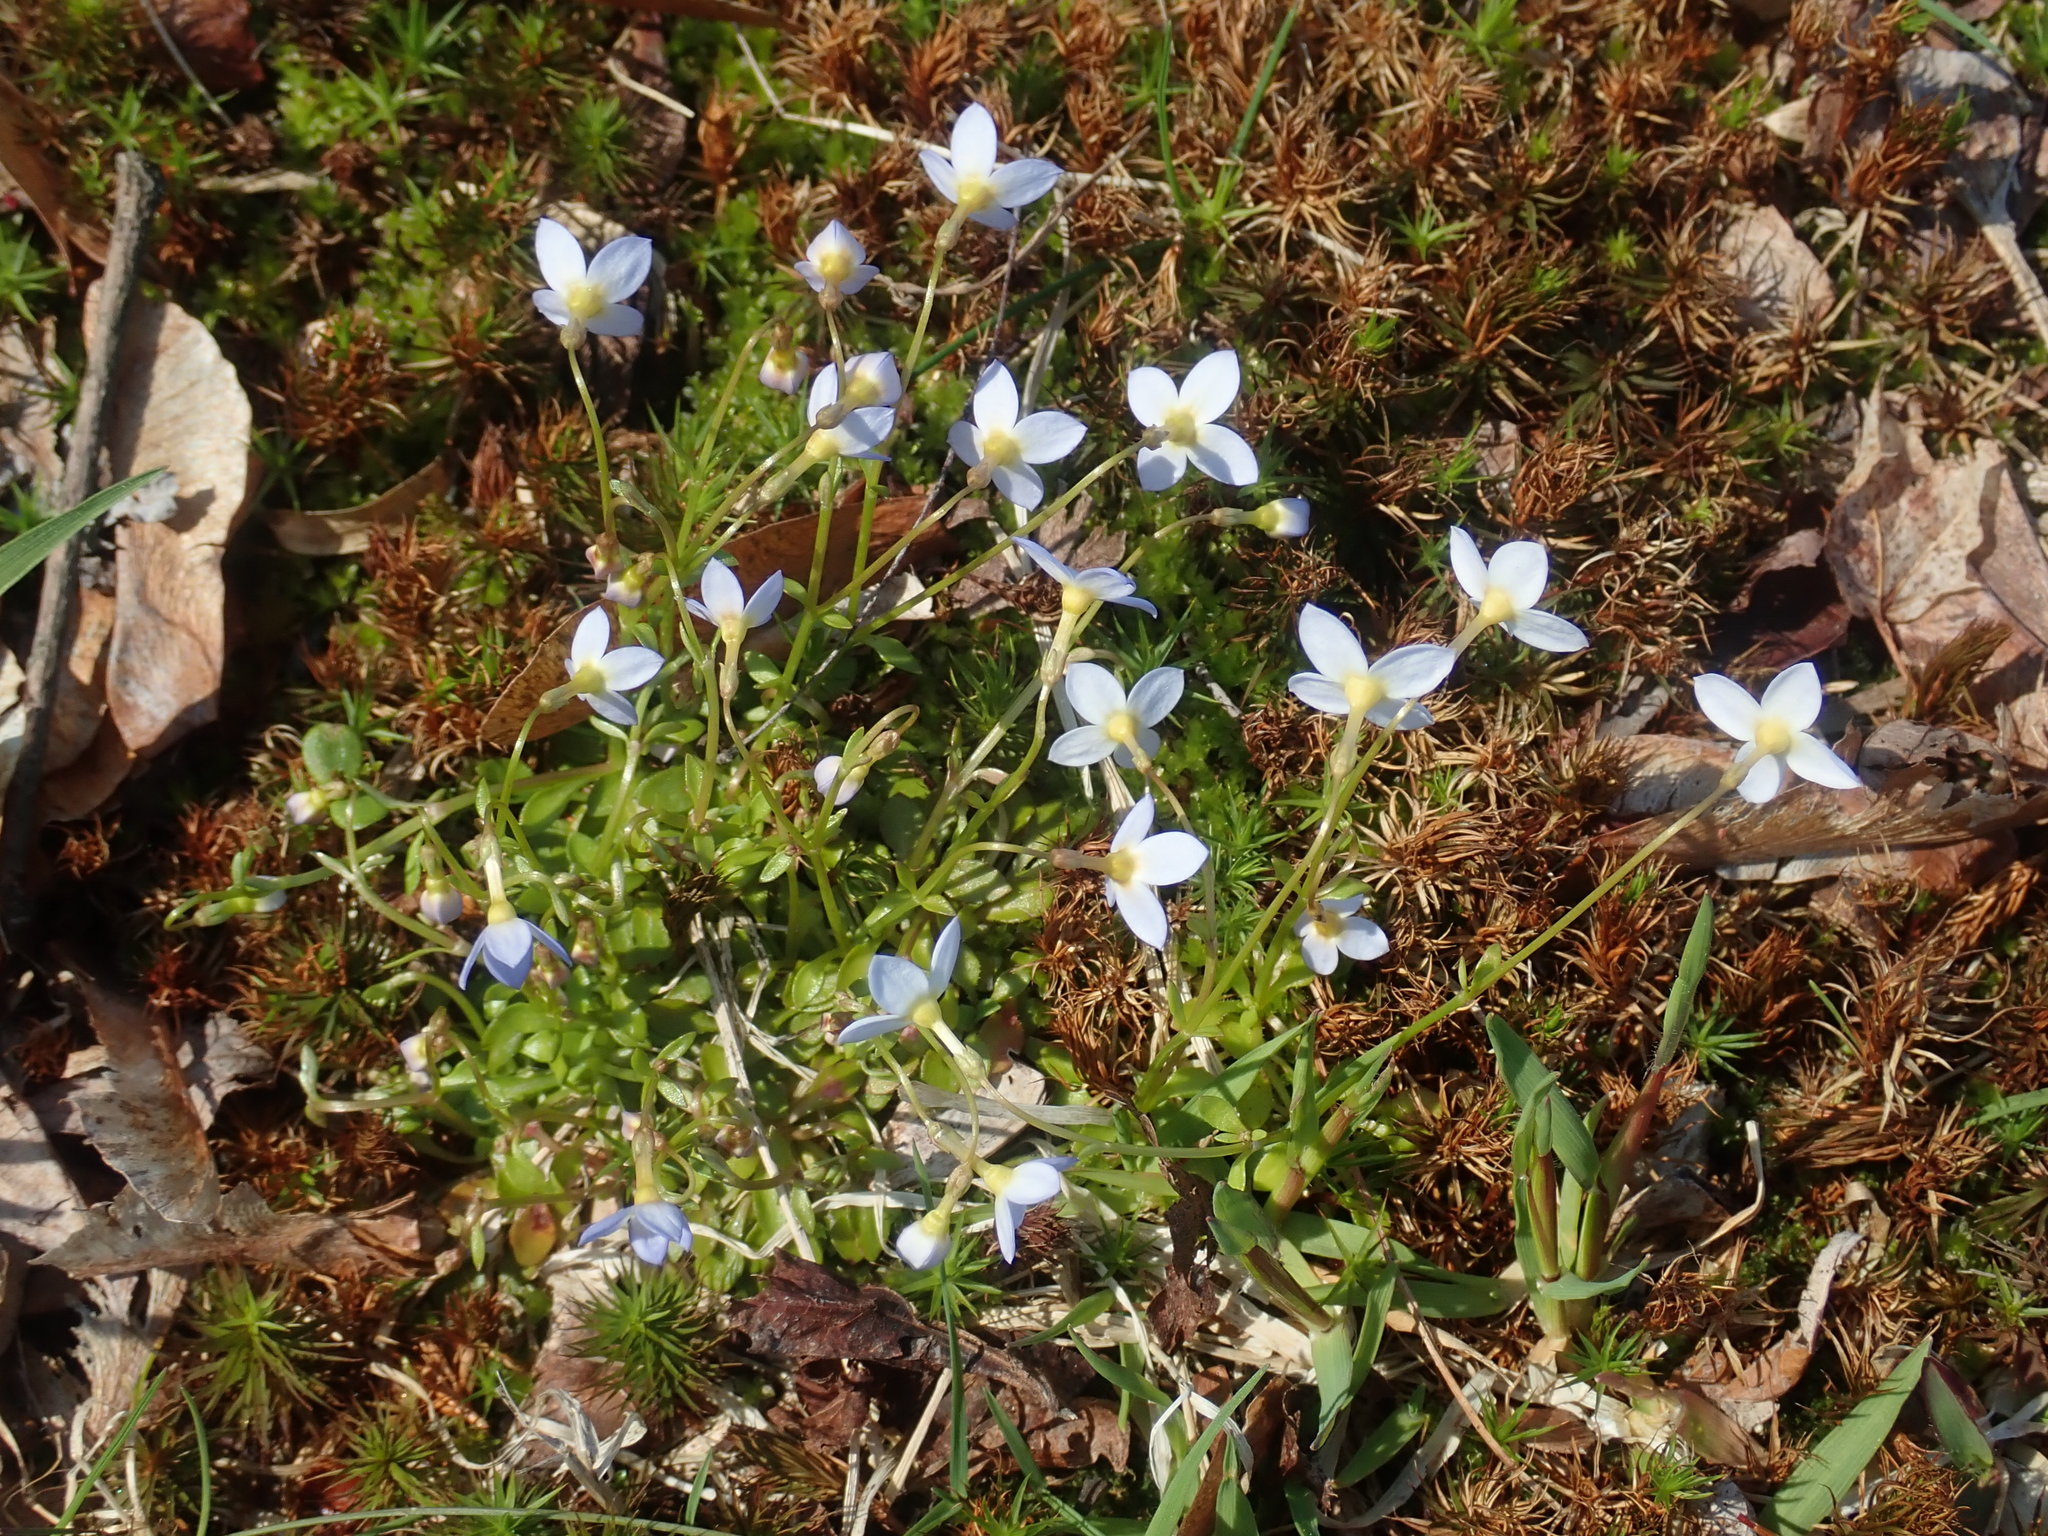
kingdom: Plantae
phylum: Tracheophyta
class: Magnoliopsida
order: Gentianales
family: Rubiaceae
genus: Houstonia
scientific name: Houstonia caerulea
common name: Bluets
